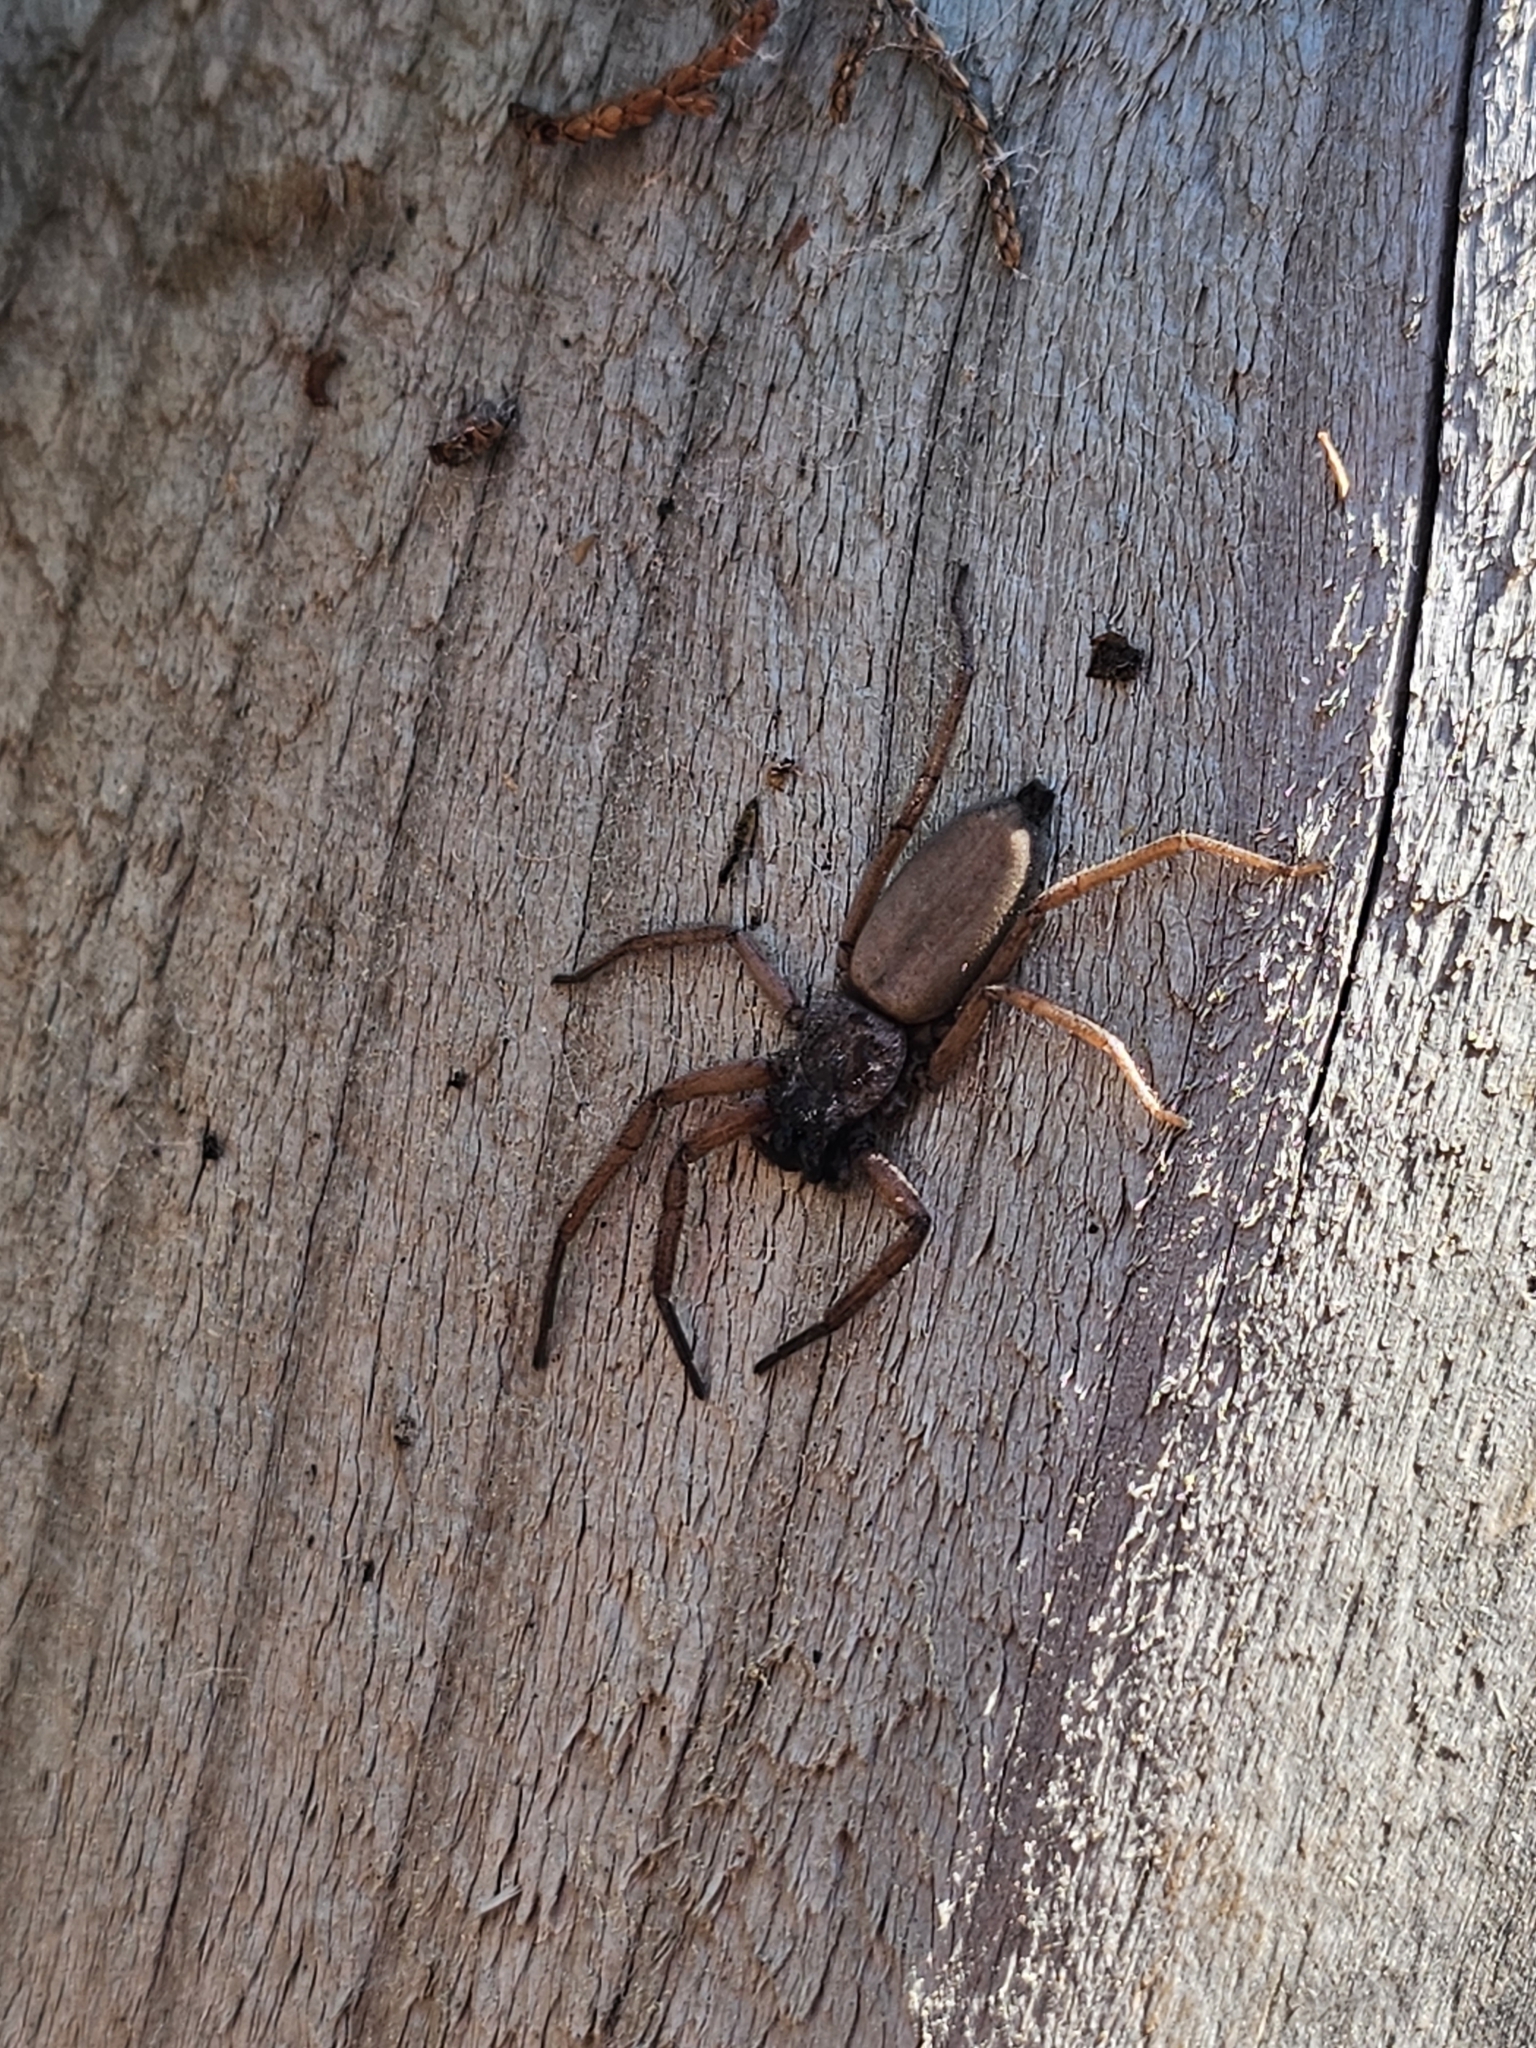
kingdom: Animalia
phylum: Arthropoda
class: Arachnida
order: Araneae
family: Trochanteriidae
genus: Hemicloea
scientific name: Hemicloea rogenhoferi
